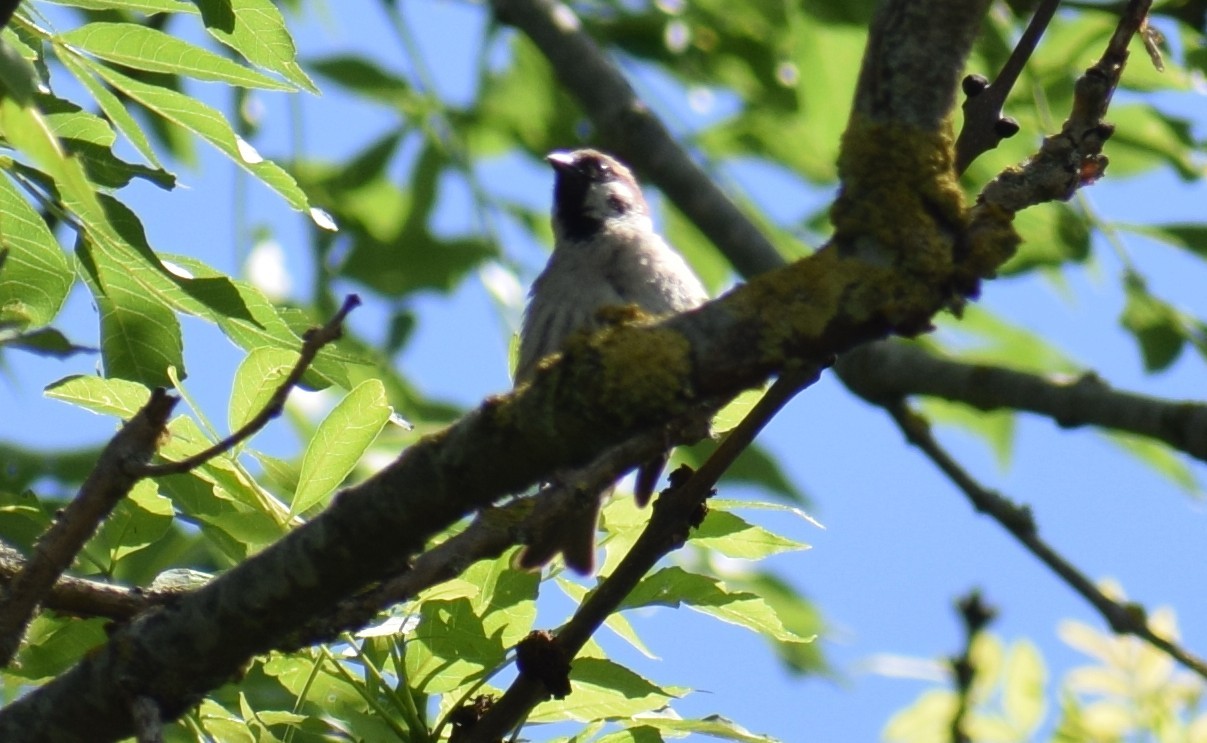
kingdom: Animalia
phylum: Chordata
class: Aves
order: Passeriformes
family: Passeridae
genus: Passer
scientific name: Passer montanus
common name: Eurasian tree sparrow
